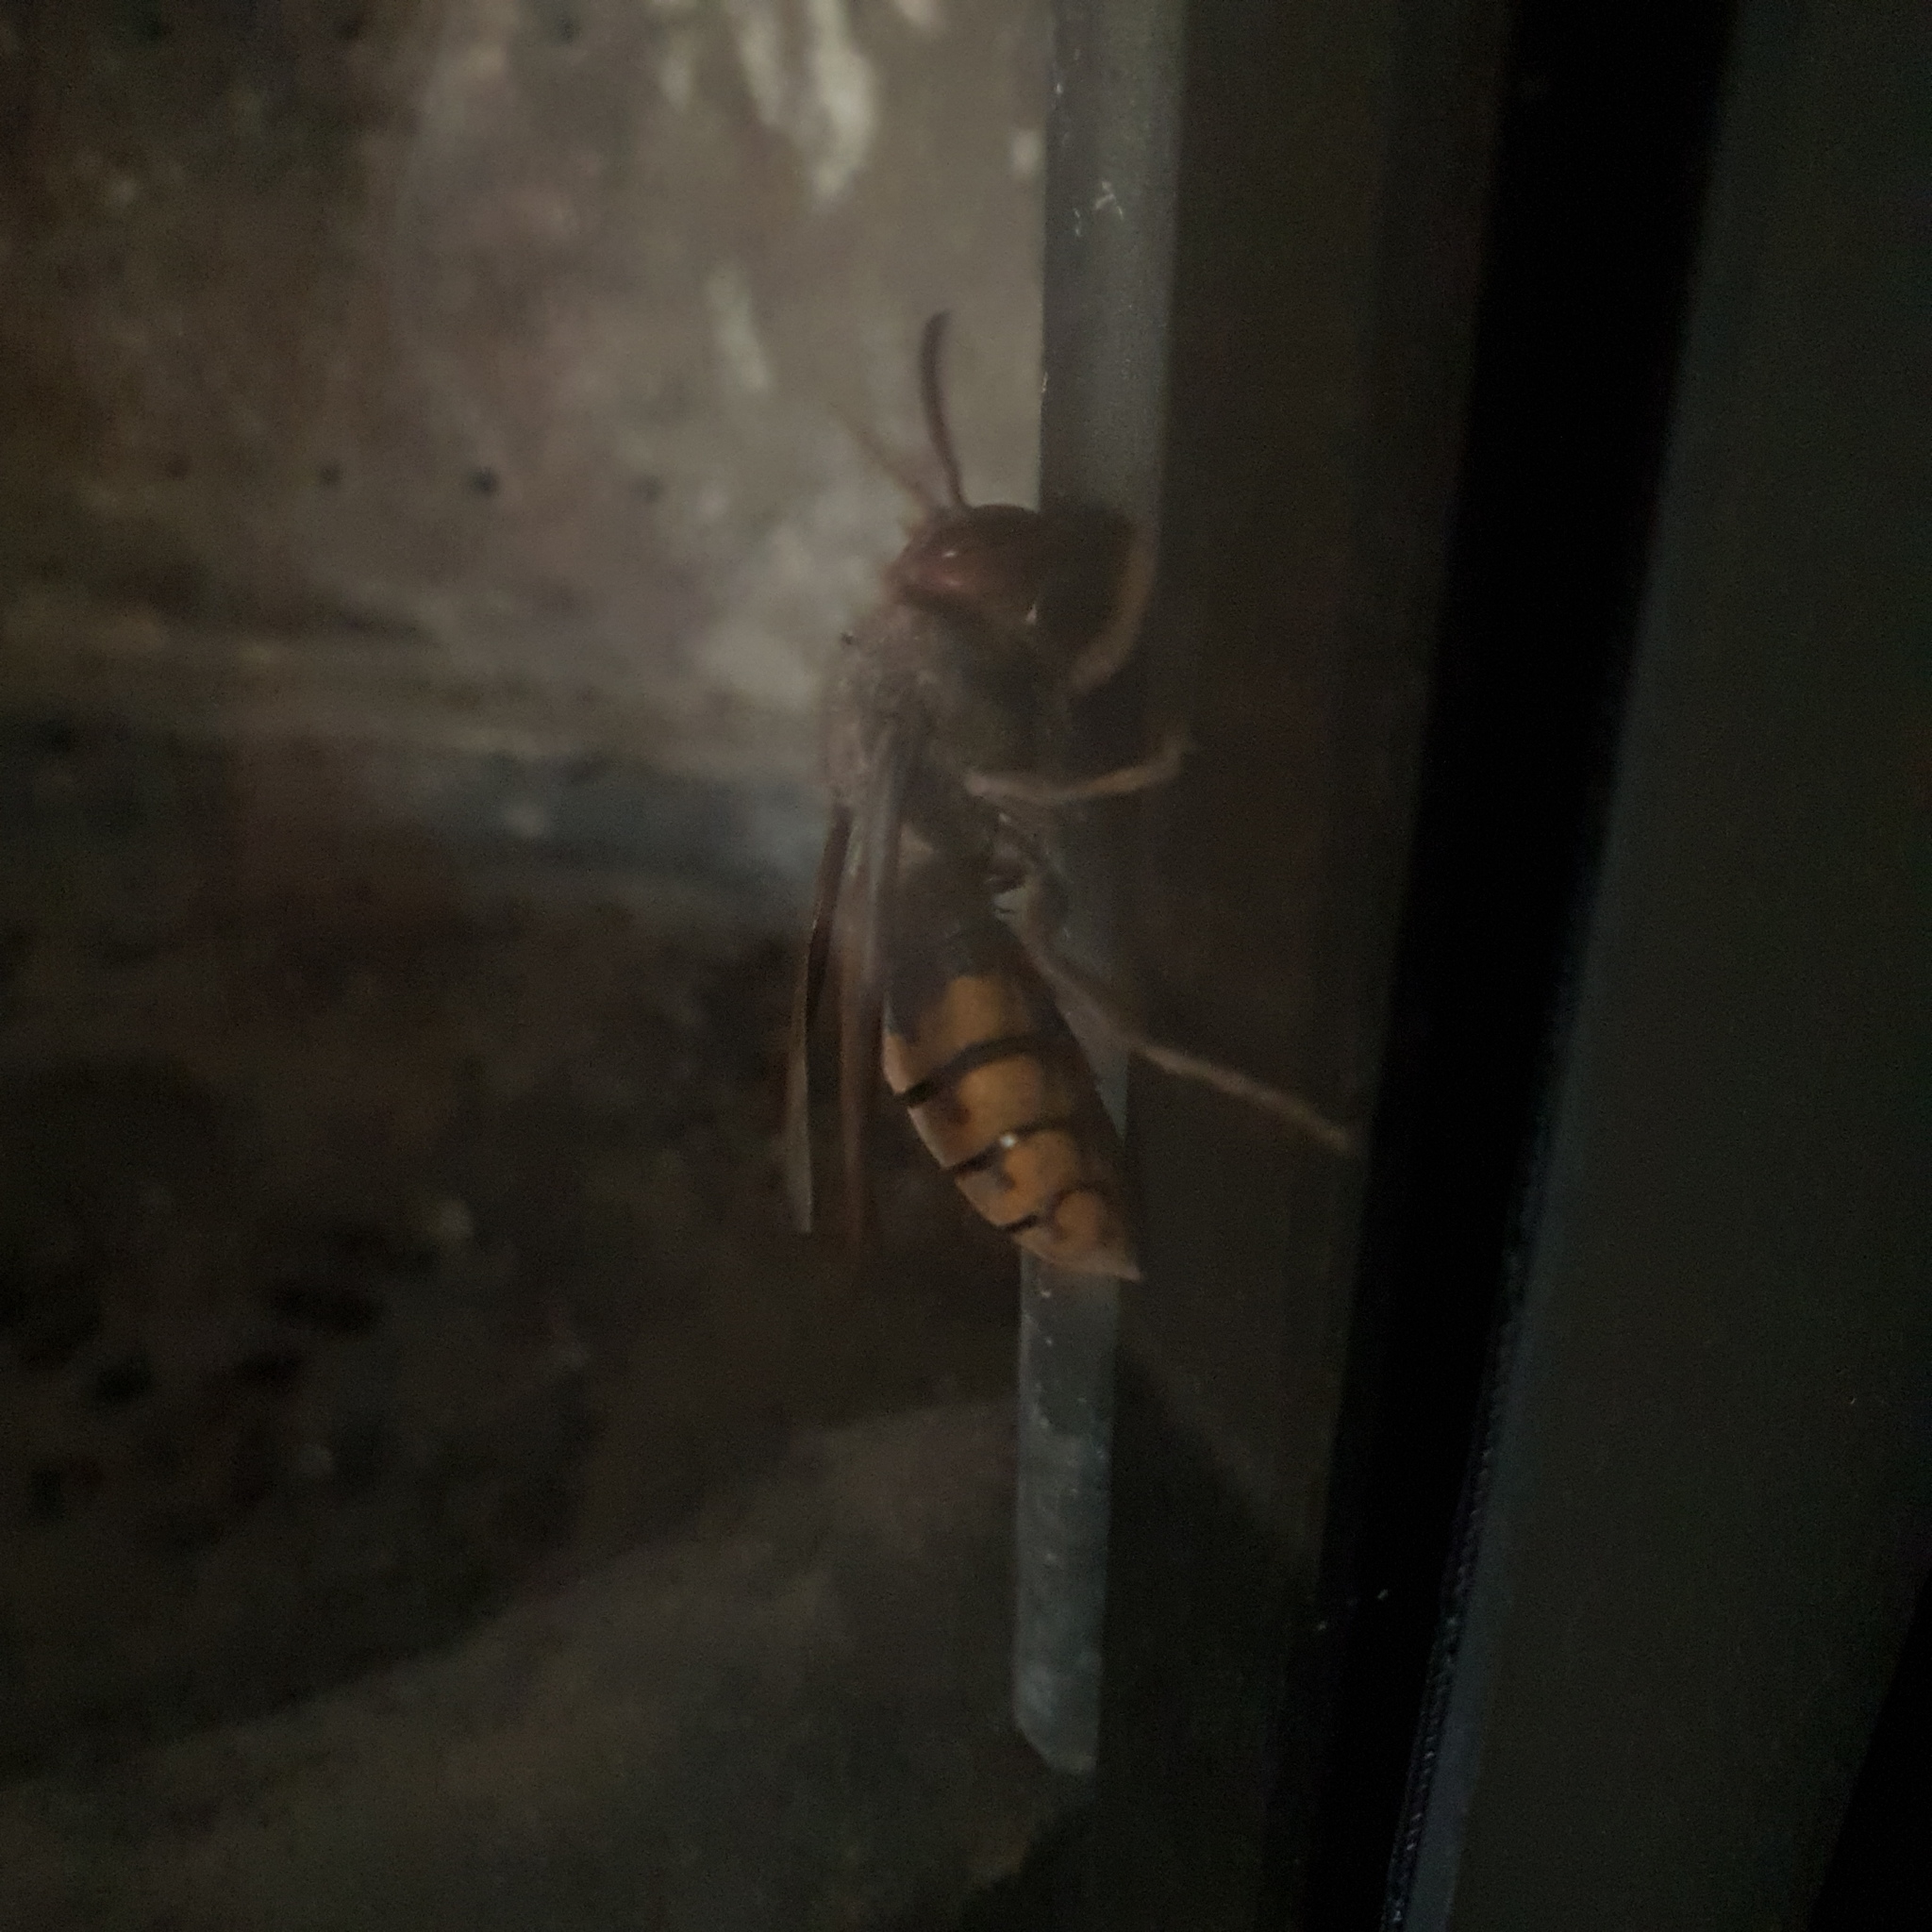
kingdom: Animalia
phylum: Arthropoda
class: Insecta
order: Hymenoptera
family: Vespidae
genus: Vespa
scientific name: Vespa crabro
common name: Hornet
